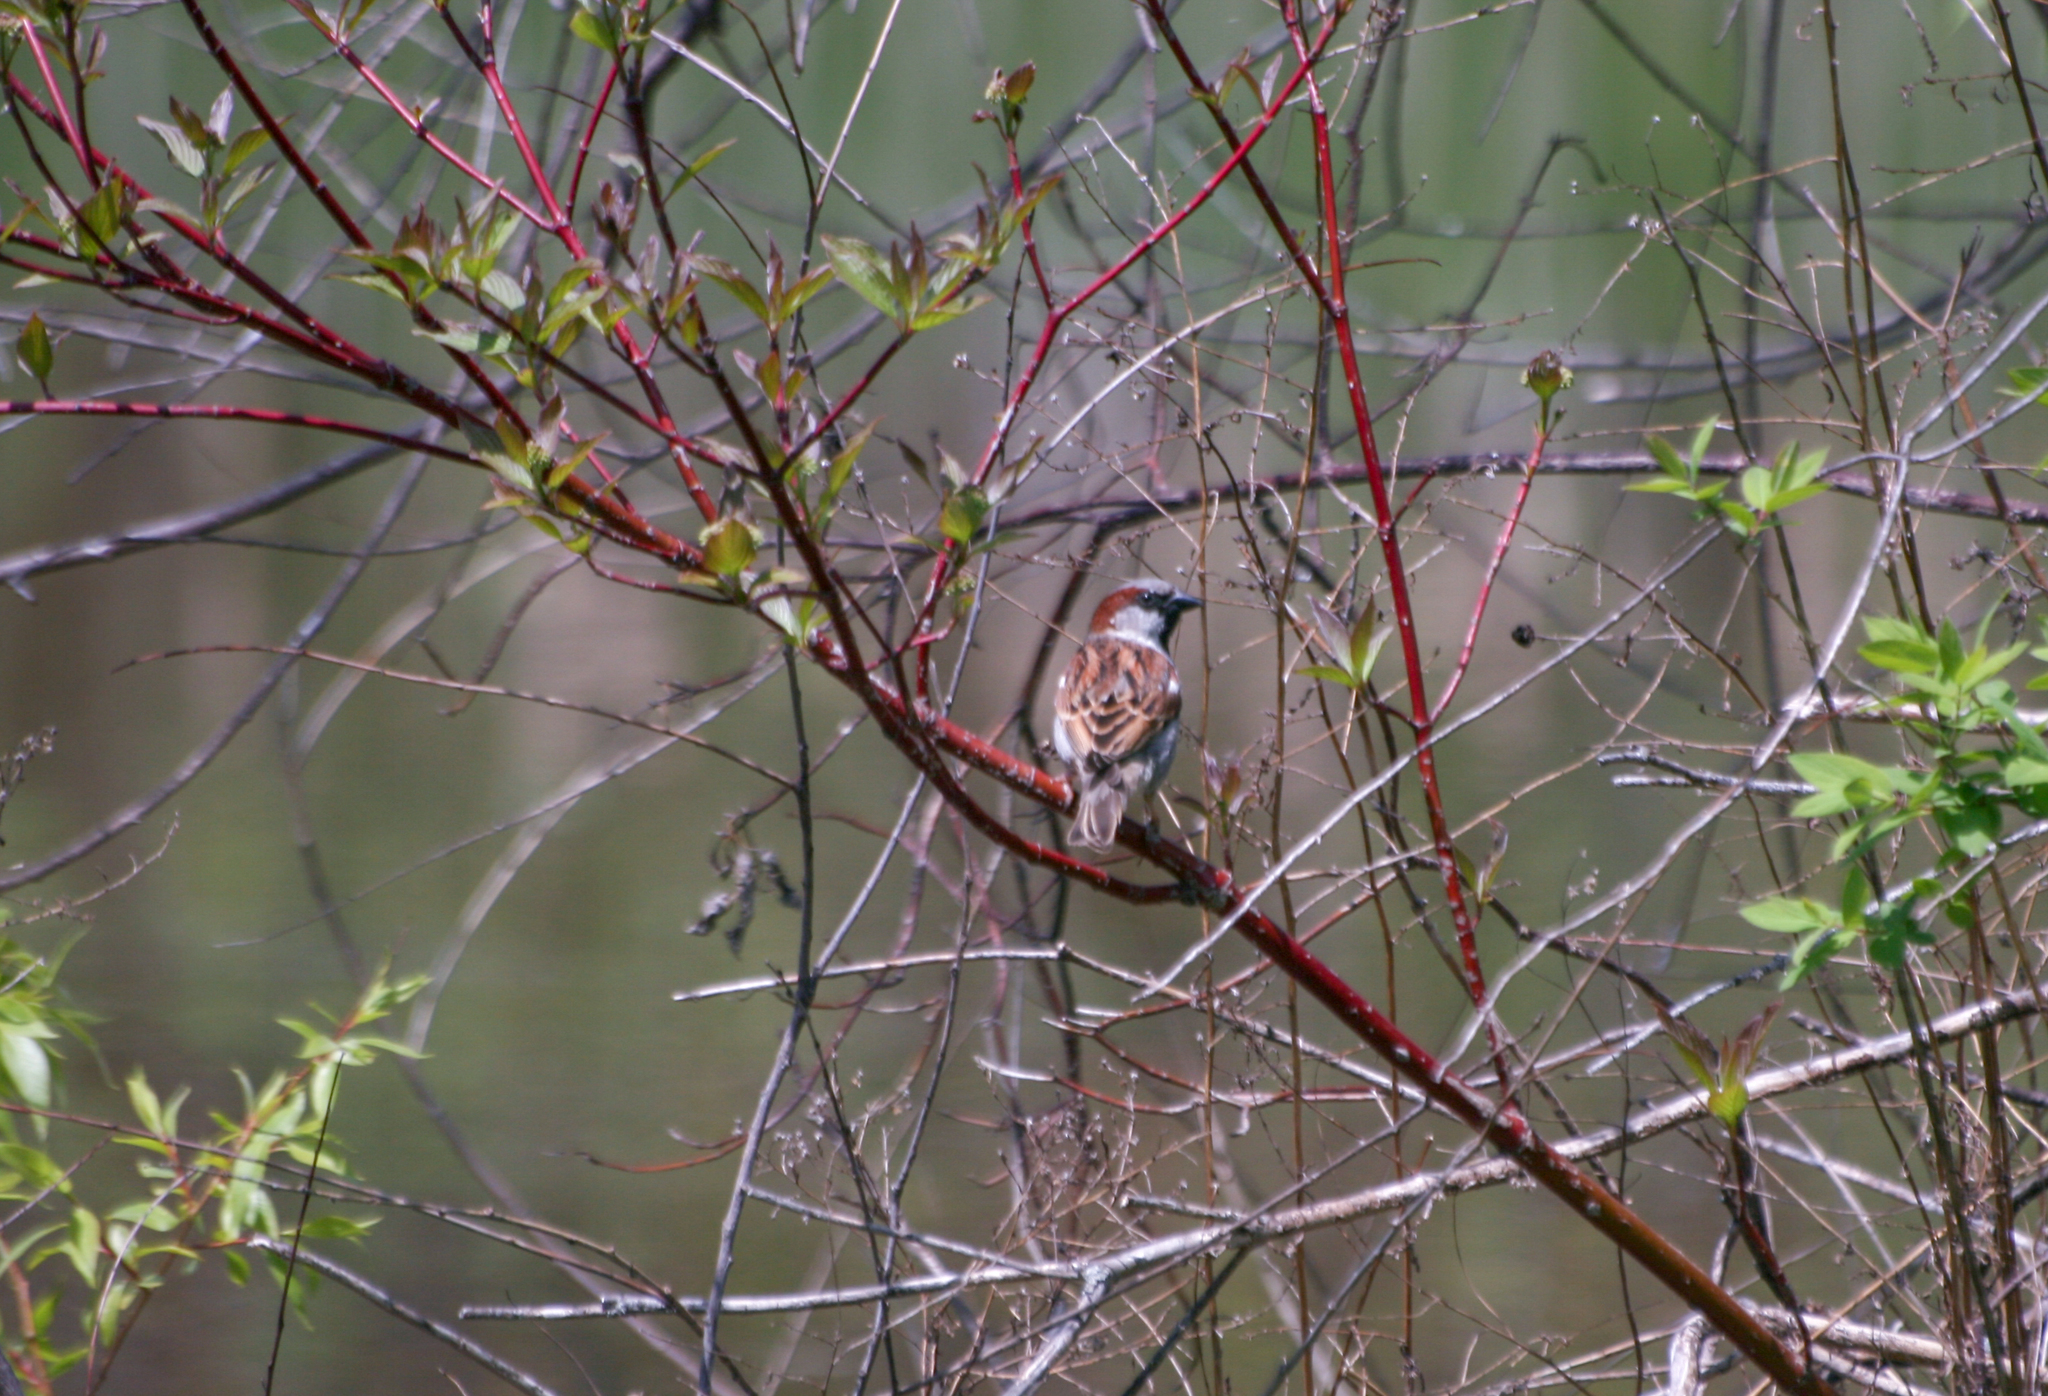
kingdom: Animalia
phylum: Chordata
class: Aves
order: Passeriformes
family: Passeridae
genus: Passer
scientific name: Passer domesticus
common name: House sparrow
